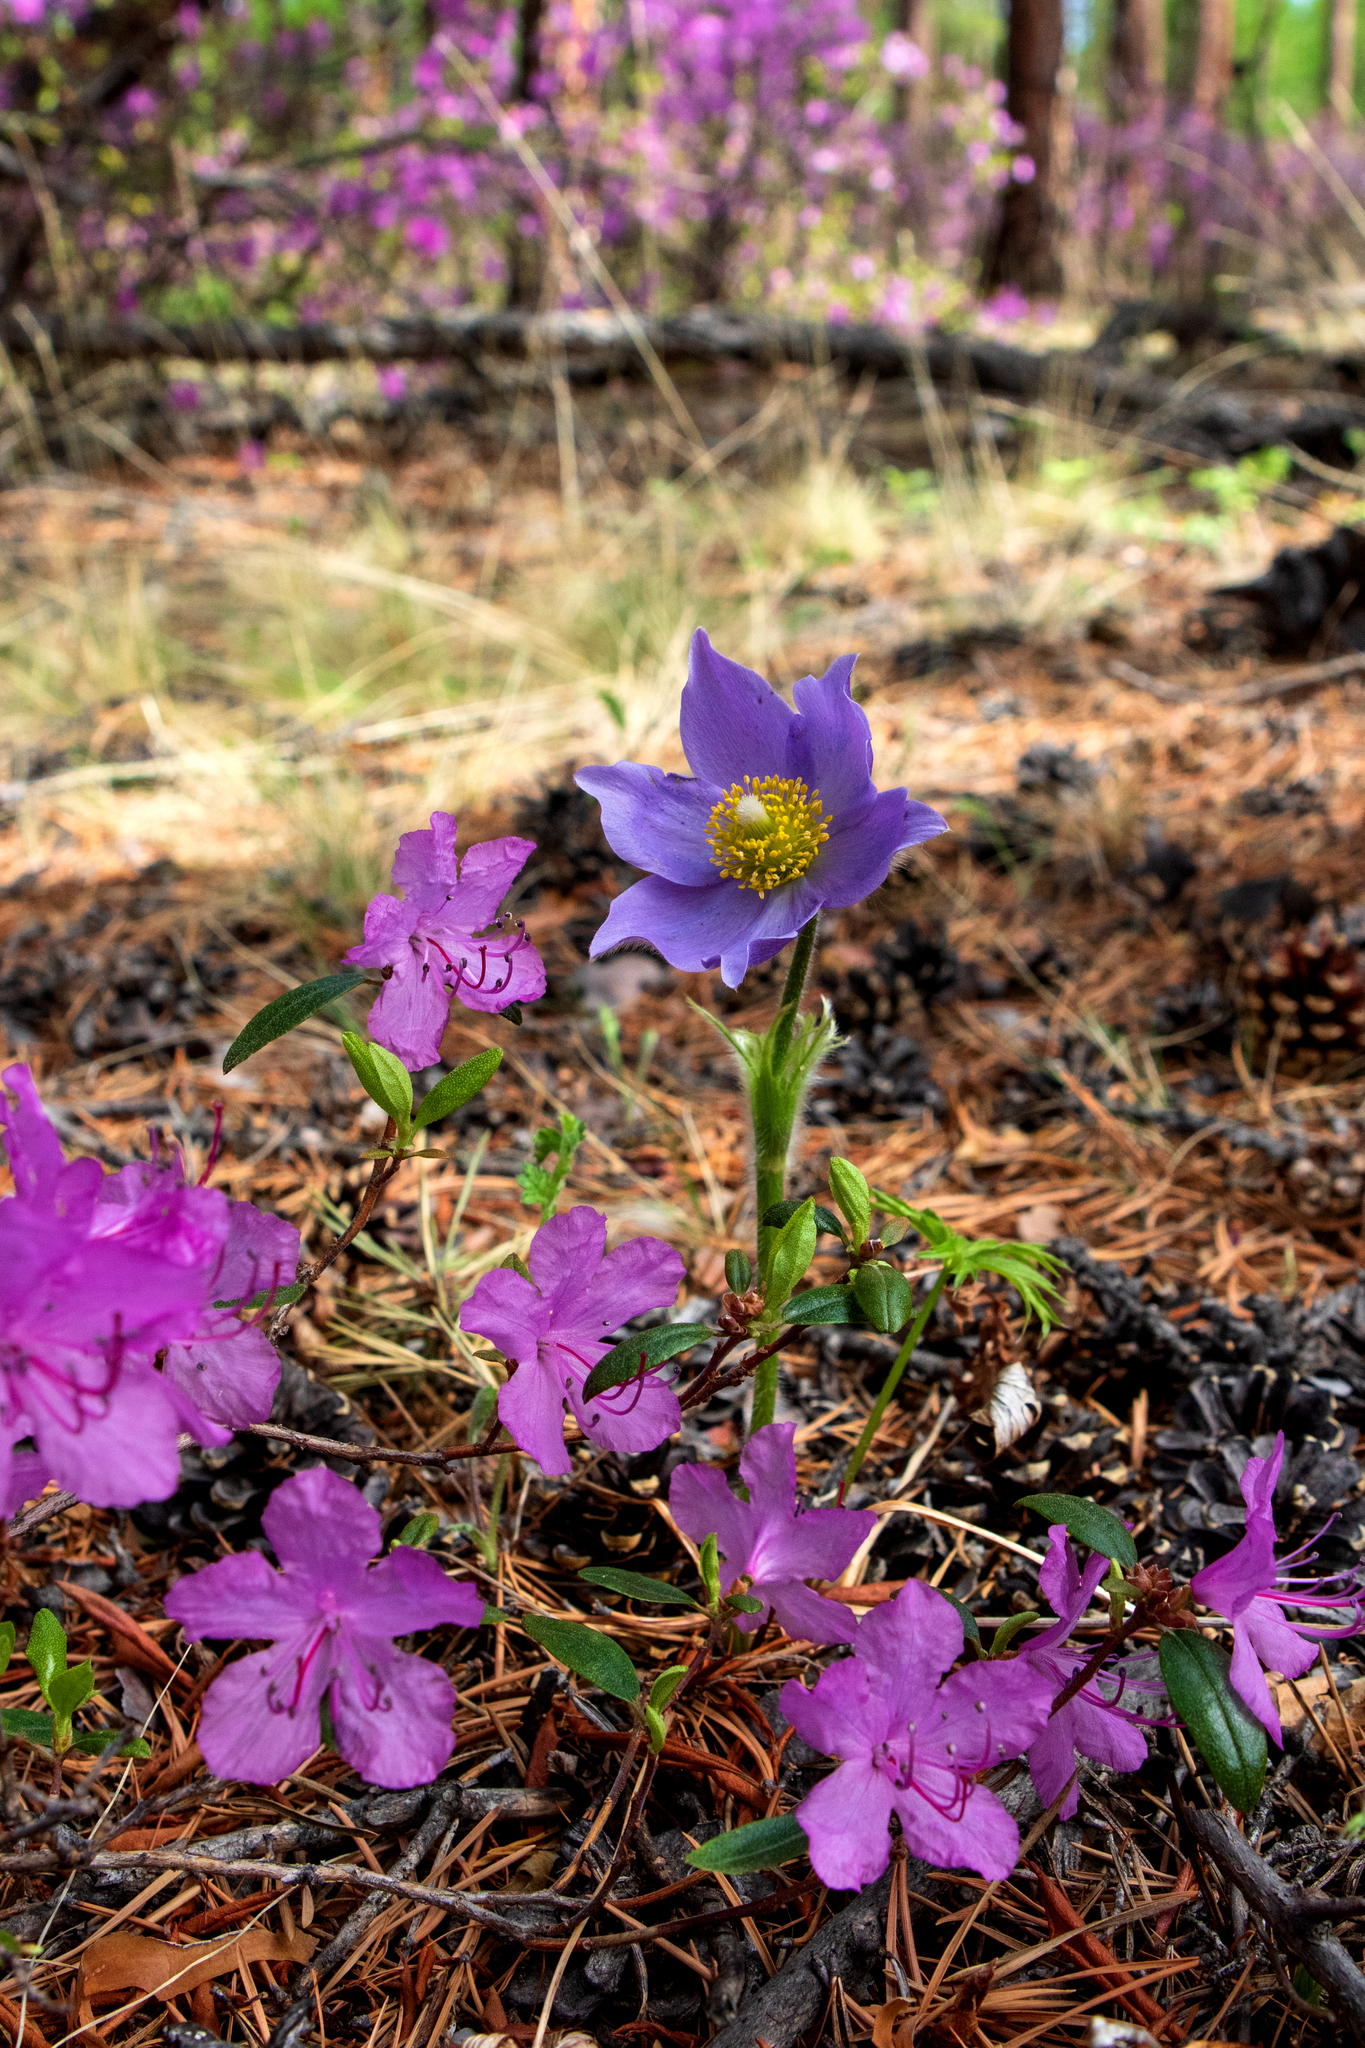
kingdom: Plantae
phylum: Tracheophyta
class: Magnoliopsida
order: Ranunculales
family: Ranunculaceae
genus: Pulsatilla
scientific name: Pulsatilla patens
